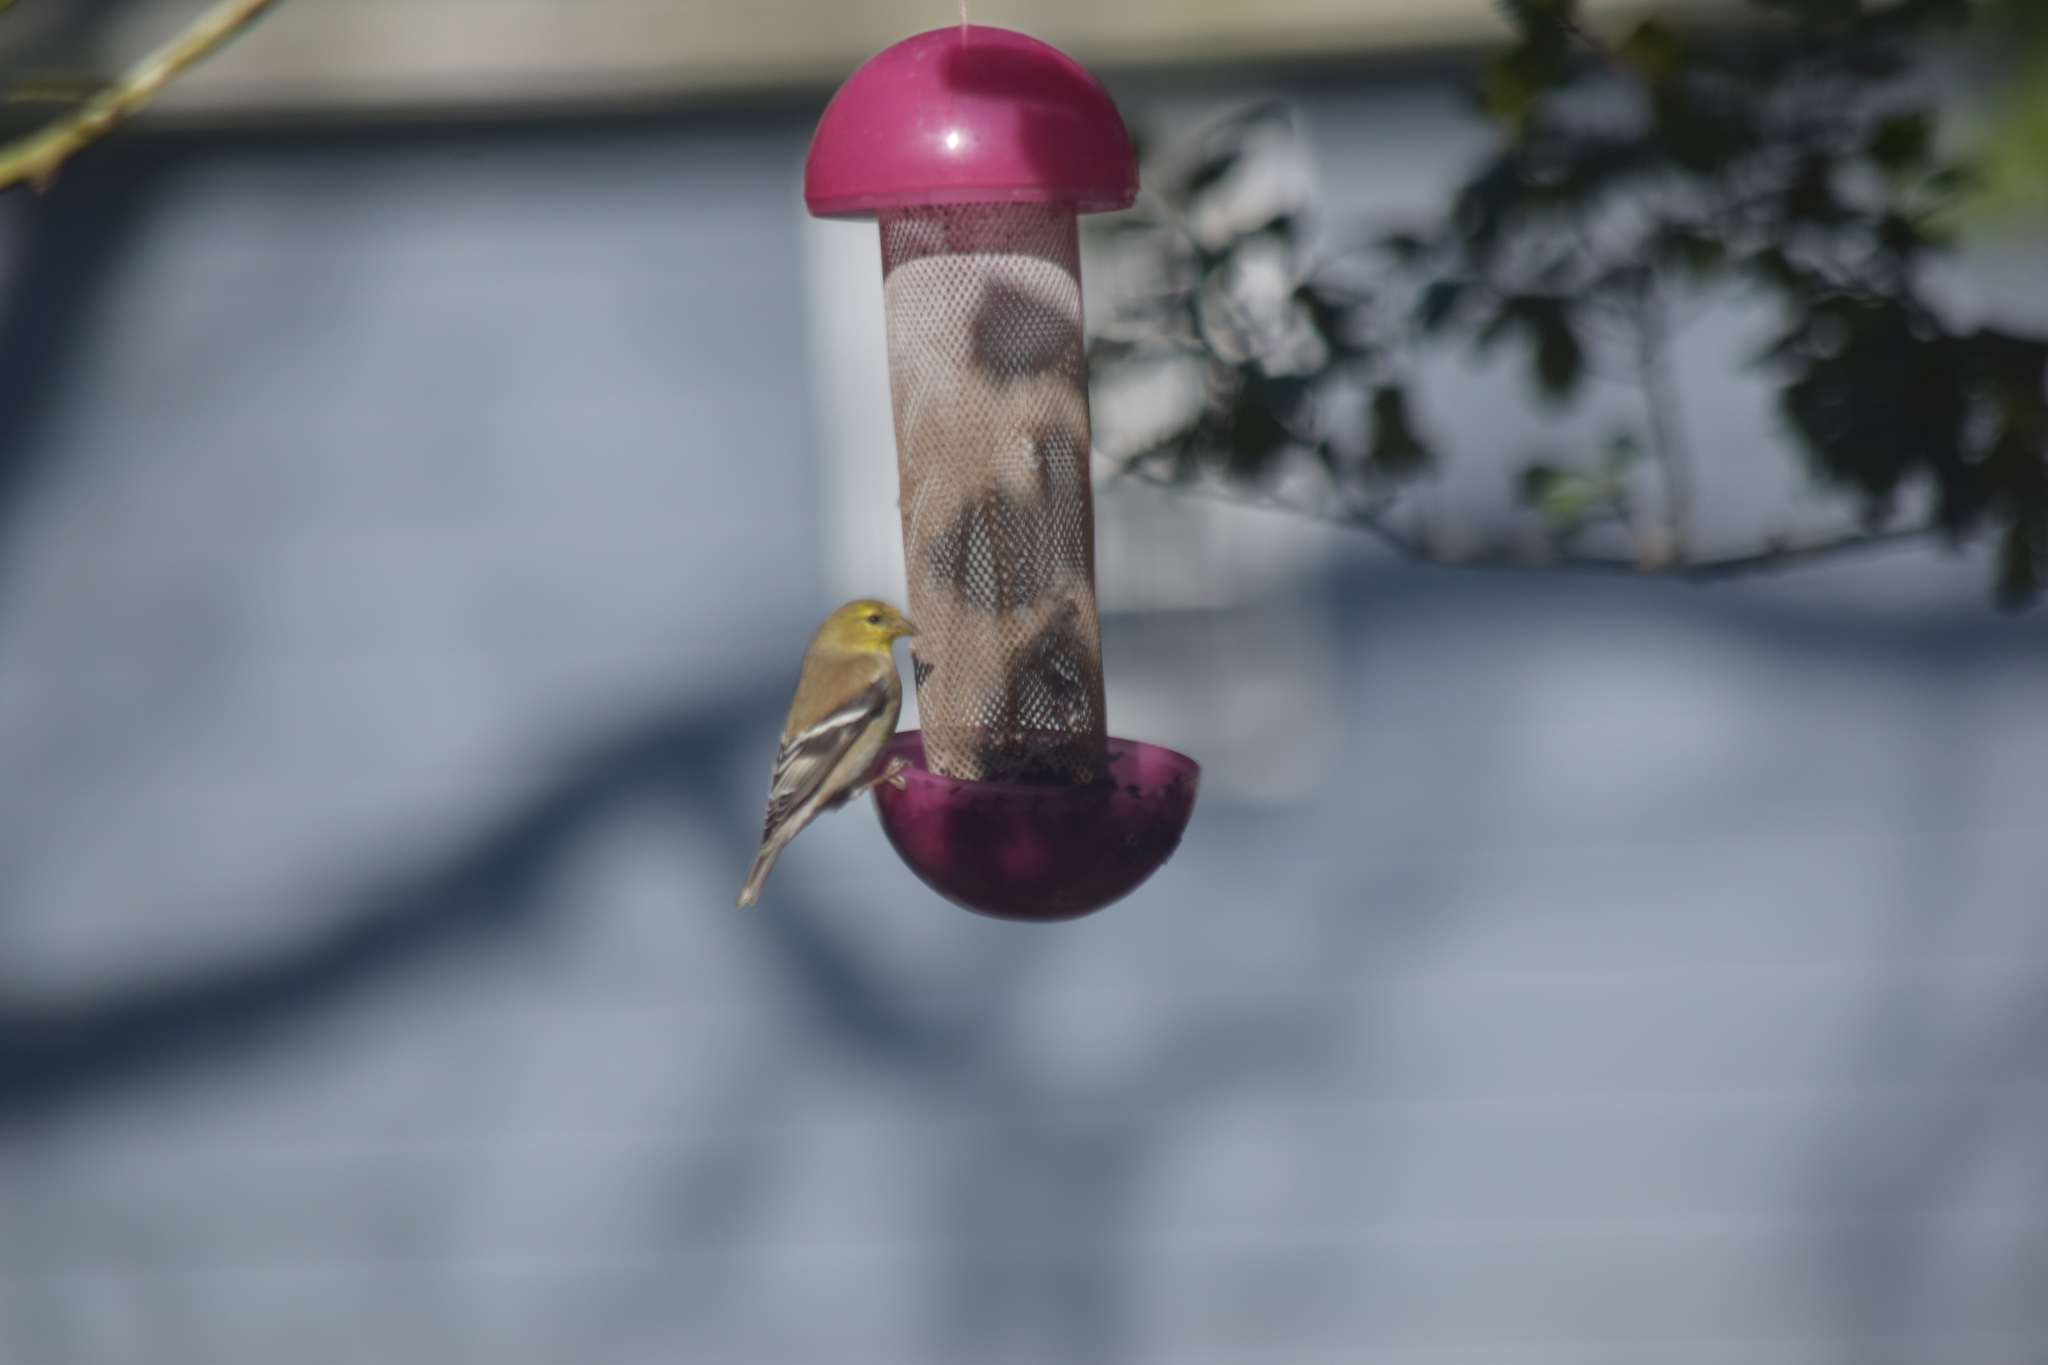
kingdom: Animalia
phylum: Chordata
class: Aves
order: Passeriformes
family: Fringillidae
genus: Spinus
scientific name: Spinus tristis
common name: American goldfinch
